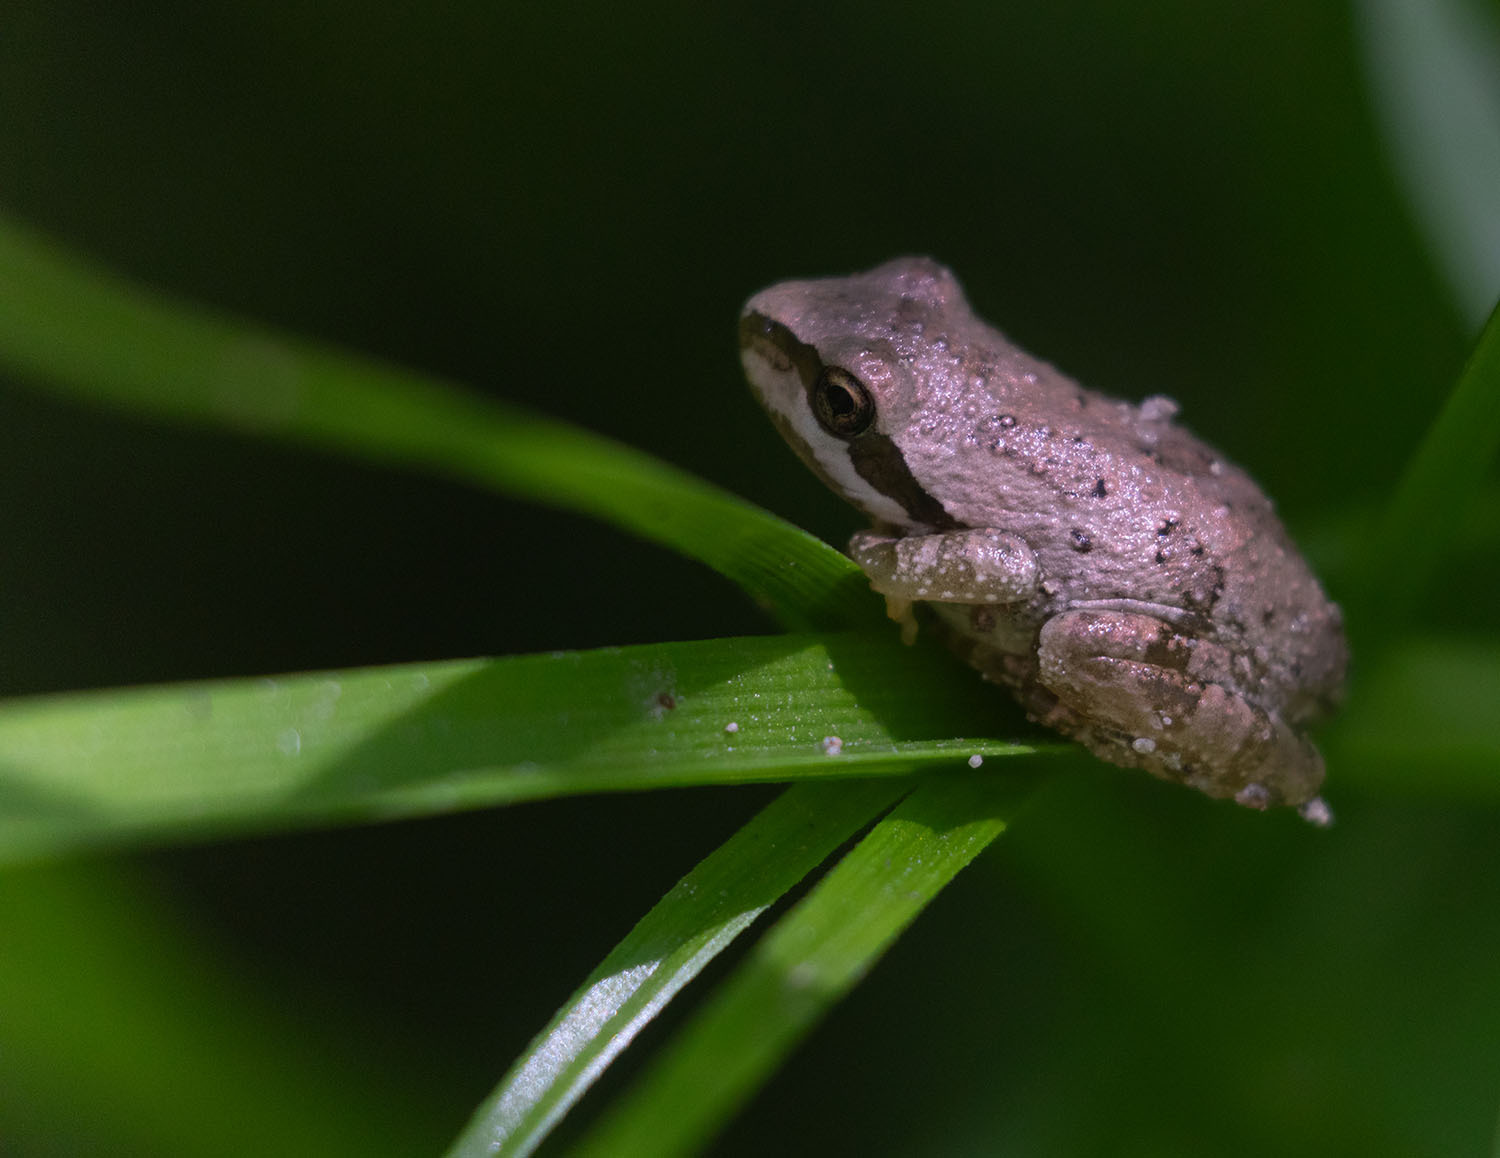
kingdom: Animalia
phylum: Chordata
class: Amphibia
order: Anura
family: Hylidae
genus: Pseudacris
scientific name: Pseudacris regilla
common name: Pacific chorus frog
